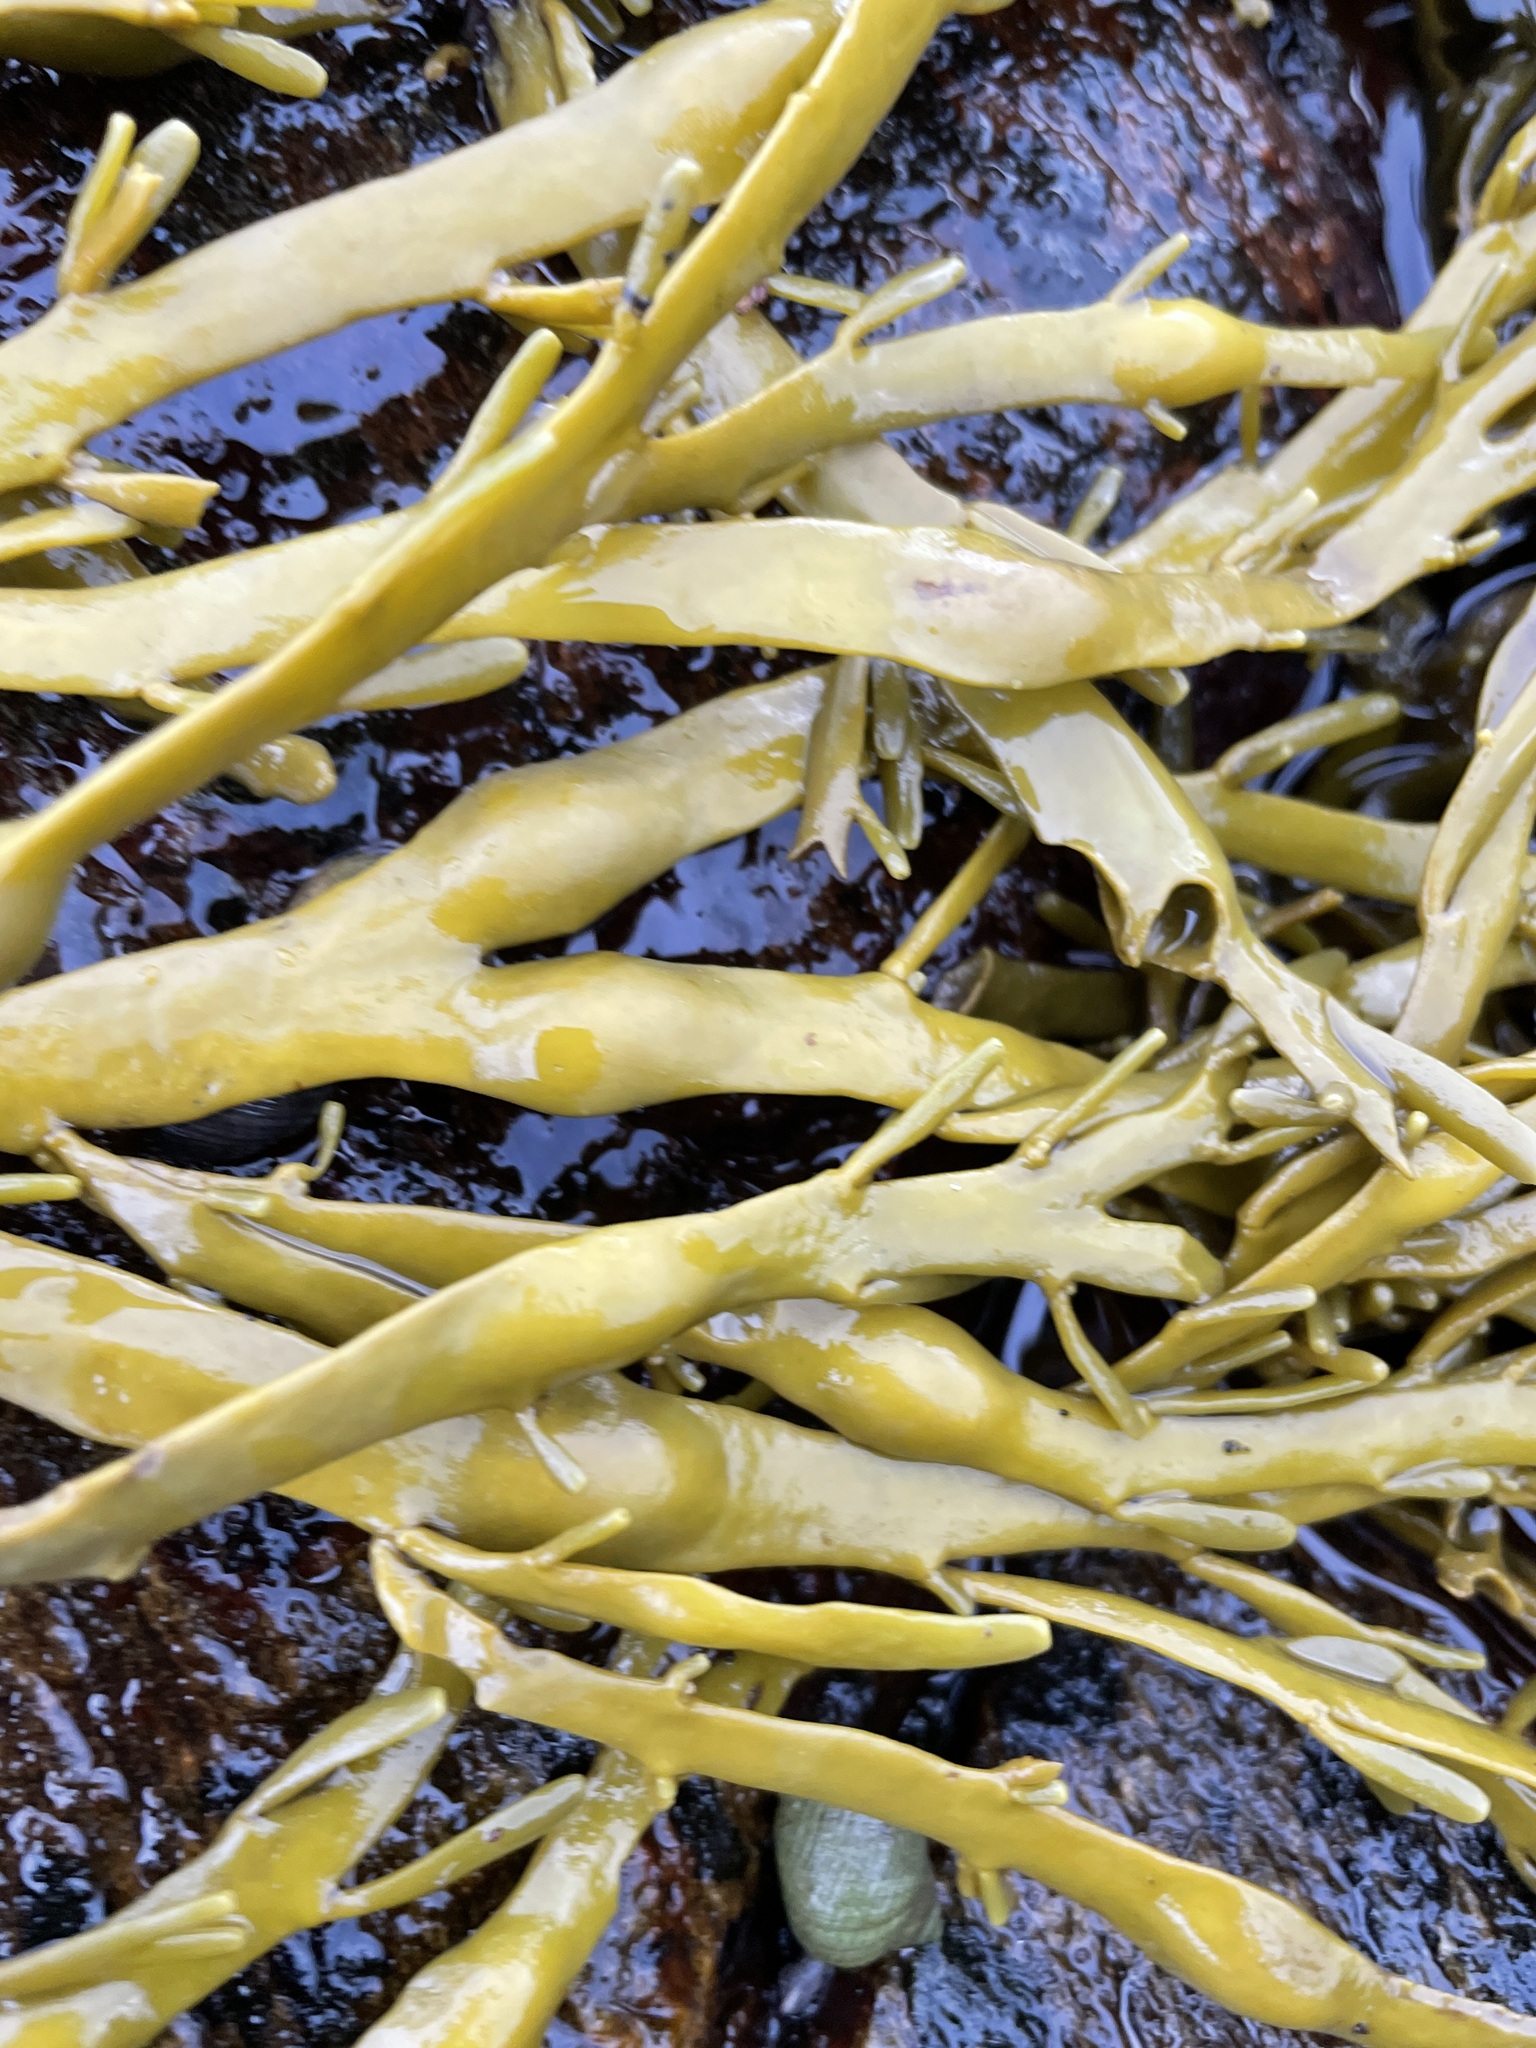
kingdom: Chromista
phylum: Ochrophyta
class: Phaeophyceae
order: Fucales
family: Fucaceae
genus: Ascophyllum
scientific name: Ascophyllum nodosum
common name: Knotted wrack
